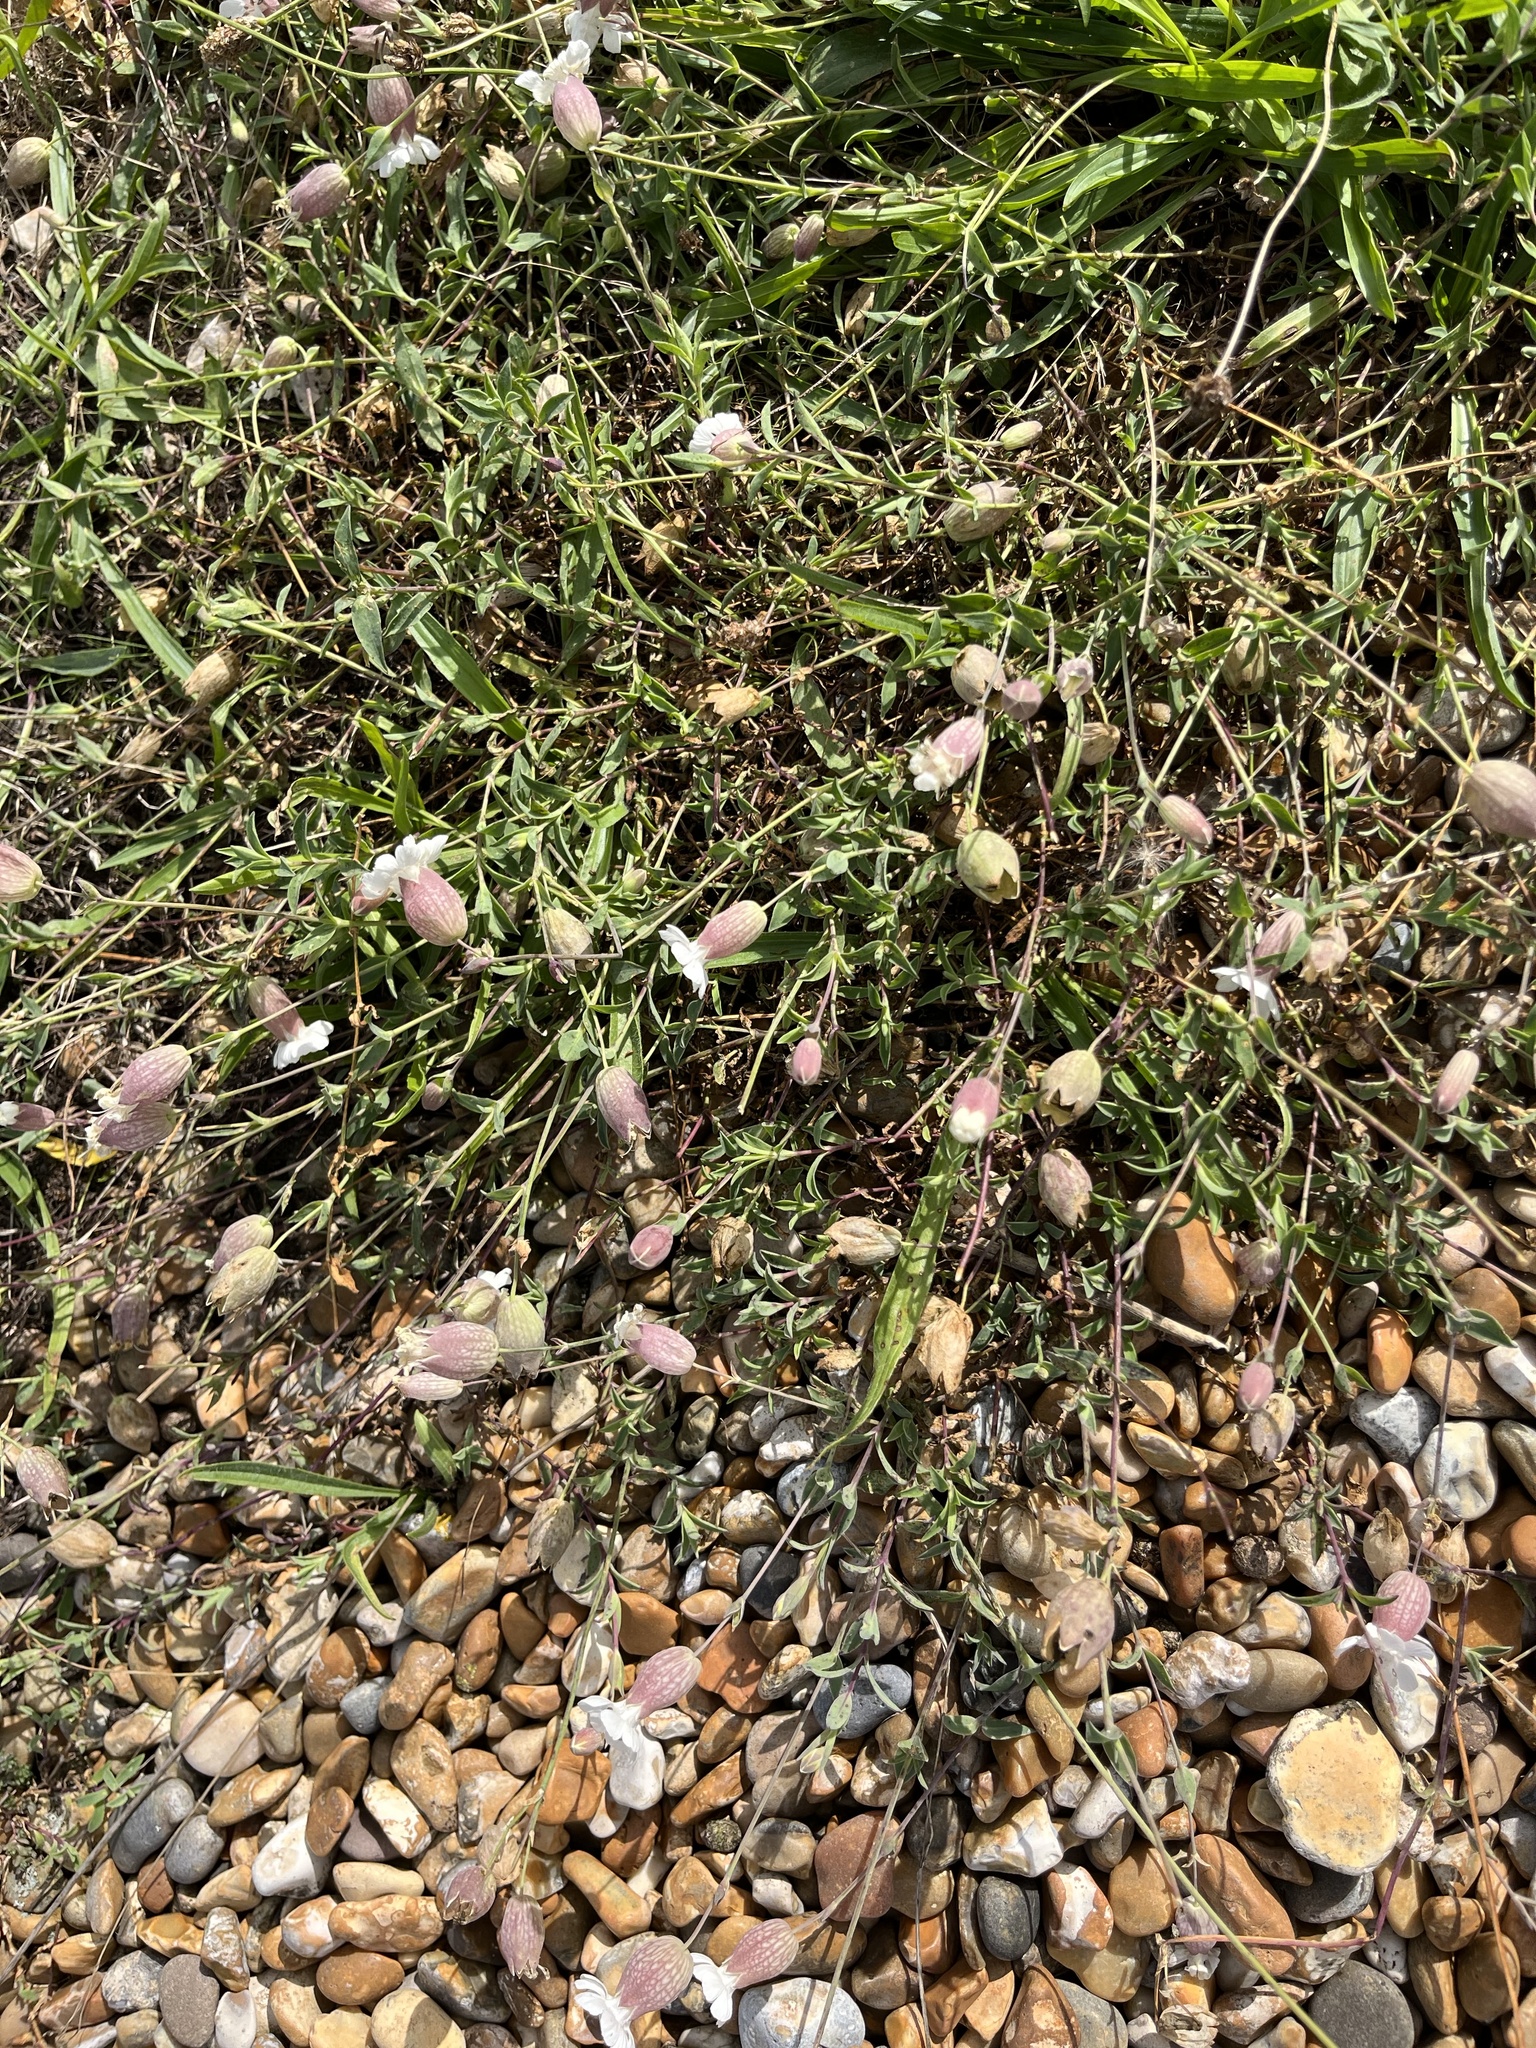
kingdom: Plantae
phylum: Tracheophyta
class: Magnoliopsida
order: Caryophyllales
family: Caryophyllaceae
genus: Silene
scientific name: Silene uniflora
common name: Sea campion
